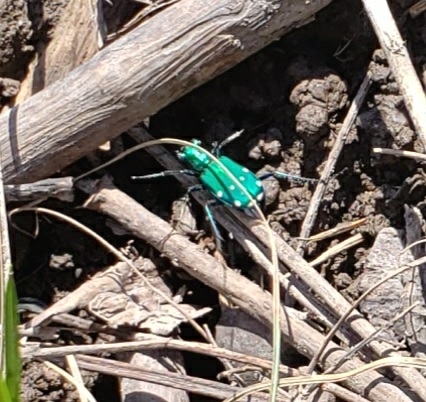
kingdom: Animalia
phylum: Arthropoda
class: Insecta
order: Coleoptera
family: Carabidae
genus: Cicindela
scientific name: Cicindela sexguttata
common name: Six-spotted tiger beetle
